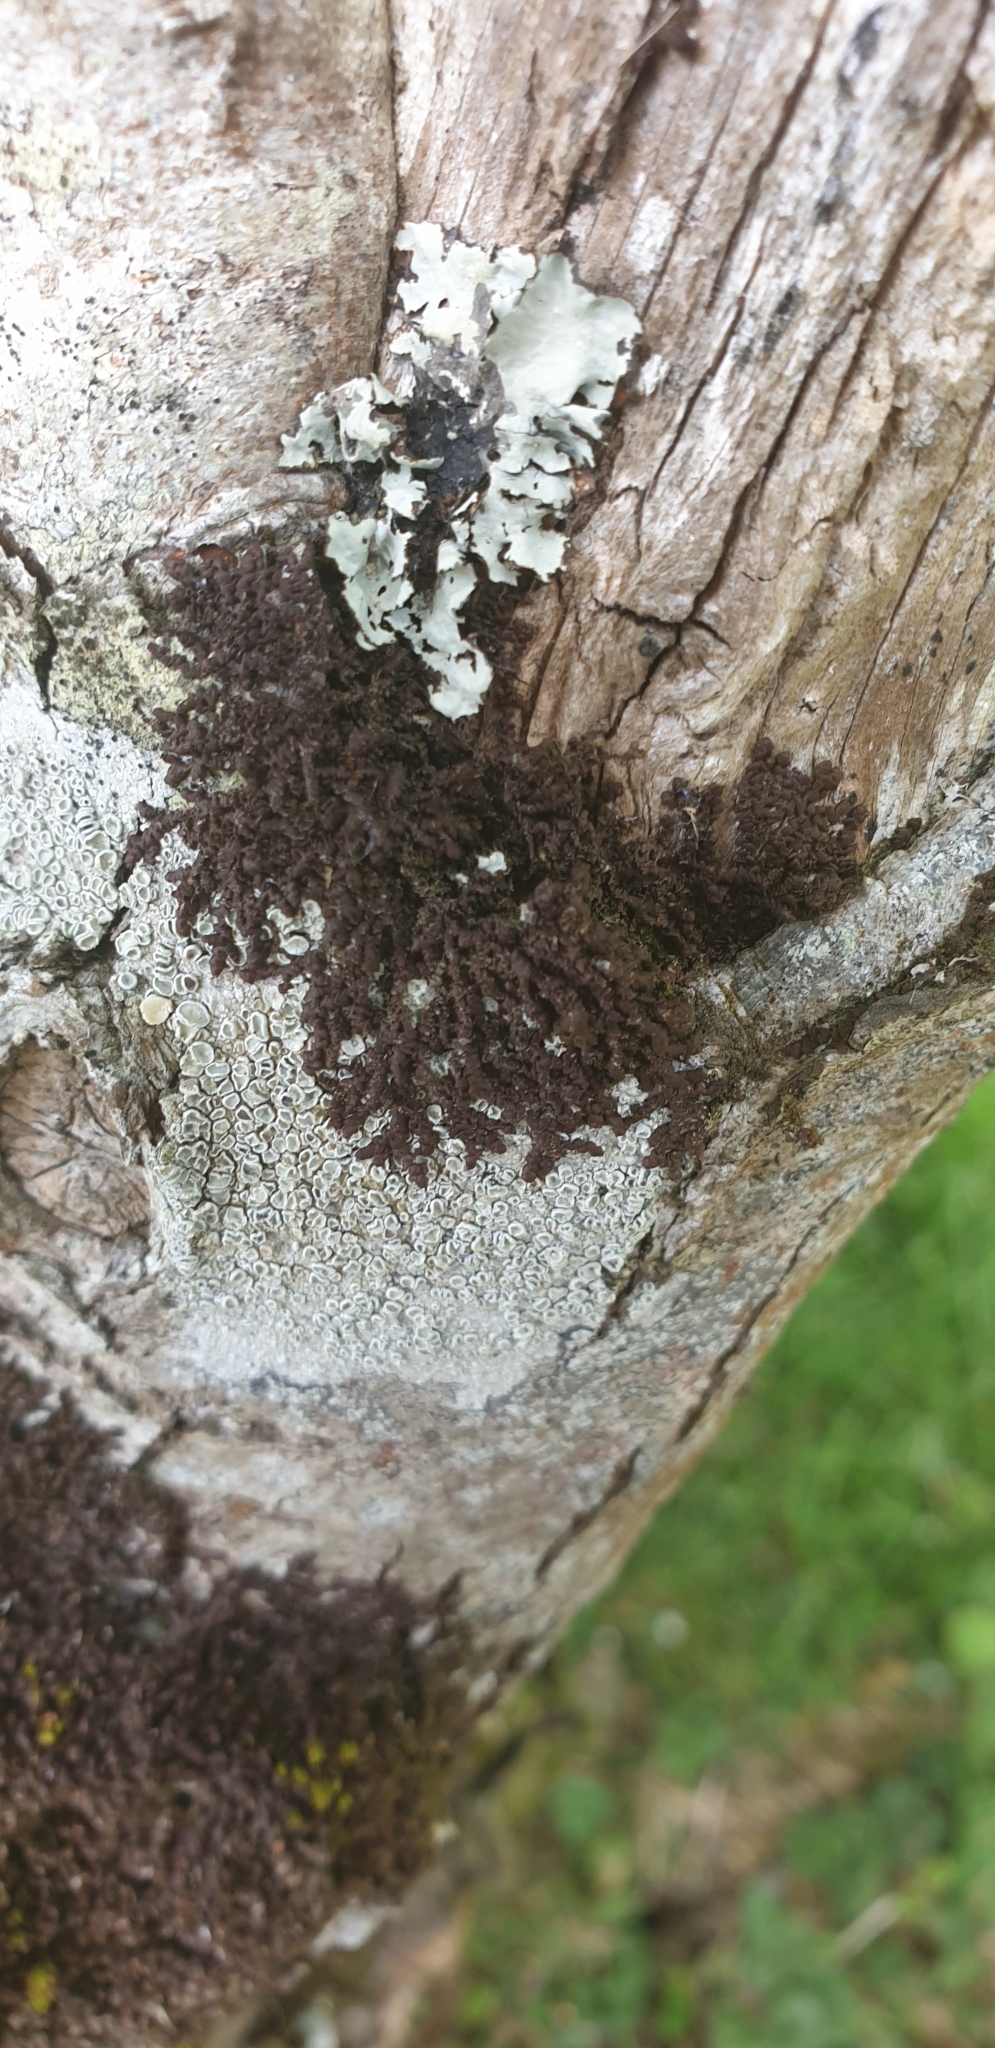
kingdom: Plantae
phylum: Marchantiophyta
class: Jungermanniopsida
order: Porellales
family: Frullaniaceae
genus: Frullania
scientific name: Frullania dilatata
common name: Dilated scalewort
